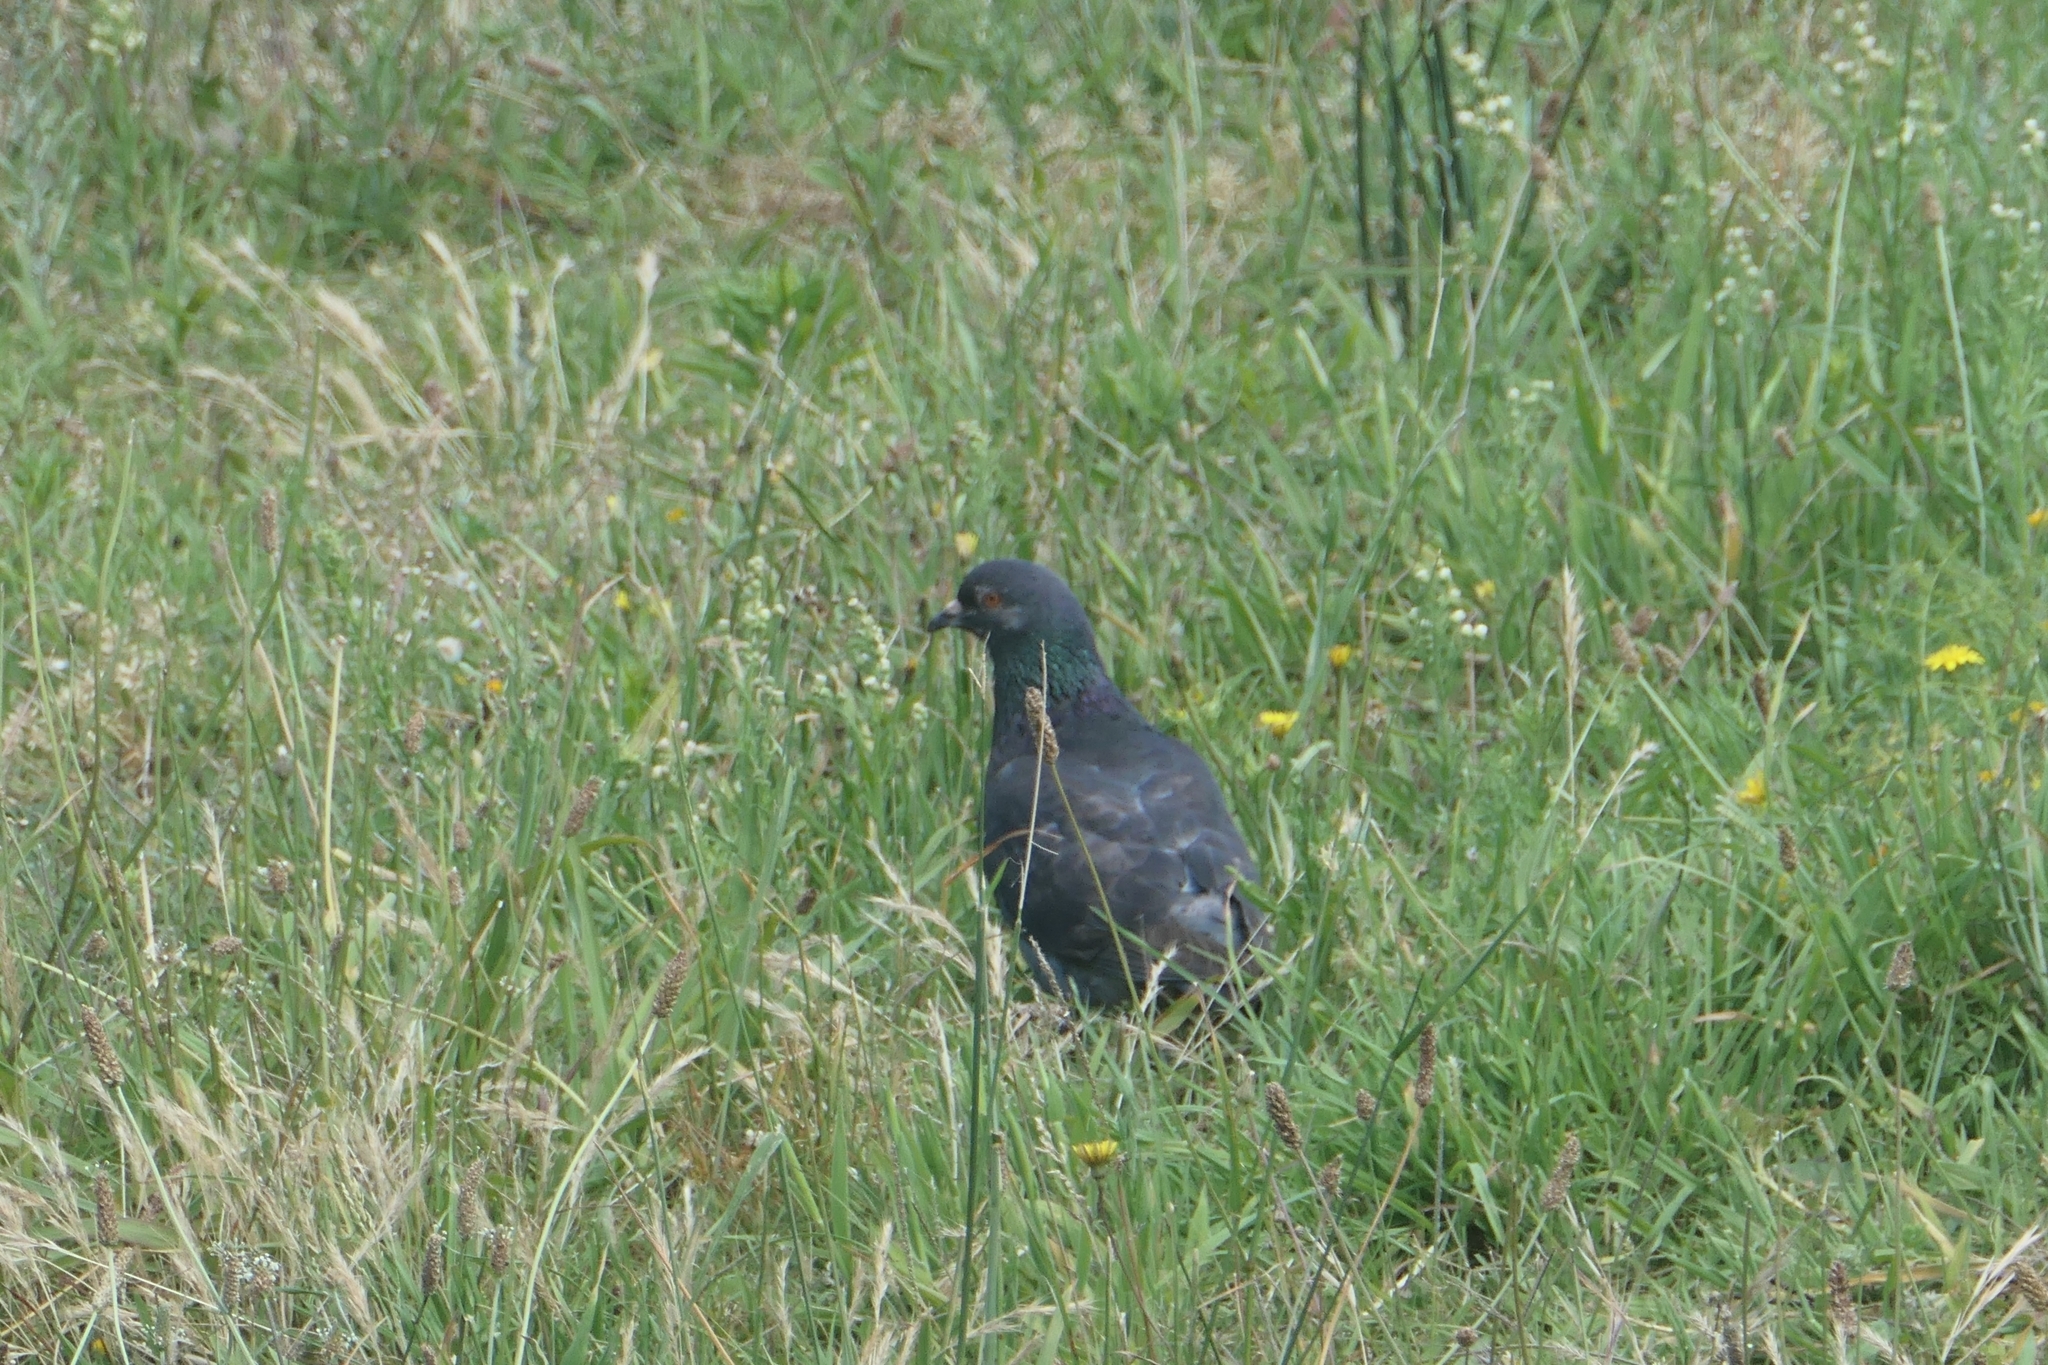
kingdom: Animalia
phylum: Chordata
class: Aves
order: Columbiformes
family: Columbidae
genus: Columba
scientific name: Columba livia
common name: Rock pigeon
